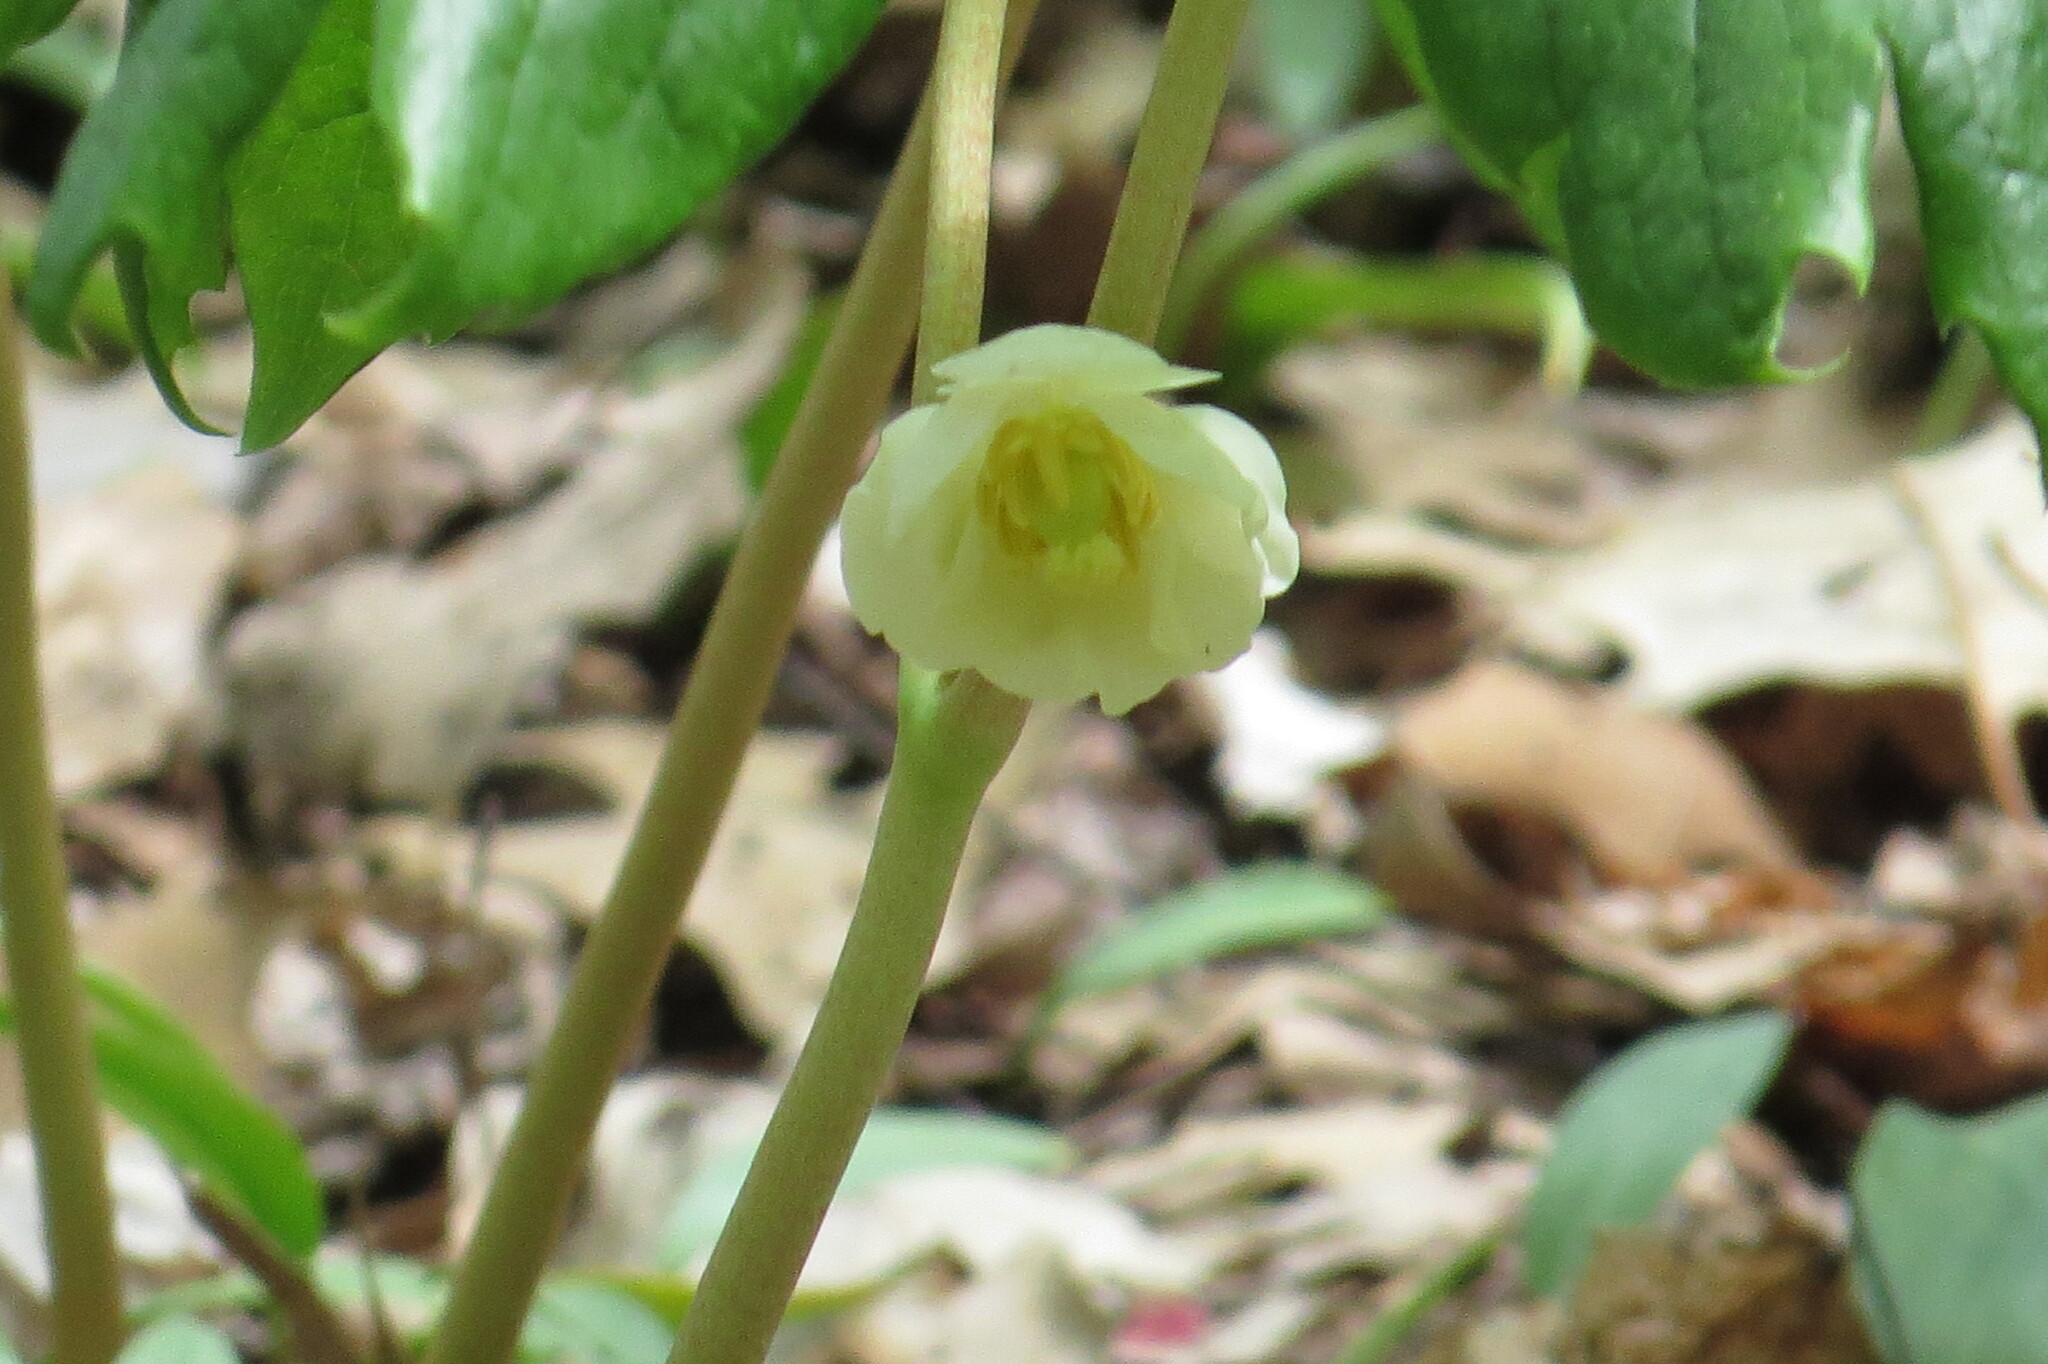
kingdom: Plantae
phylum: Tracheophyta
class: Magnoliopsida
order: Ranunculales
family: Berberidaceae
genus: Podophyllum
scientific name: Podophyllum peltatum
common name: Wild mandrake
